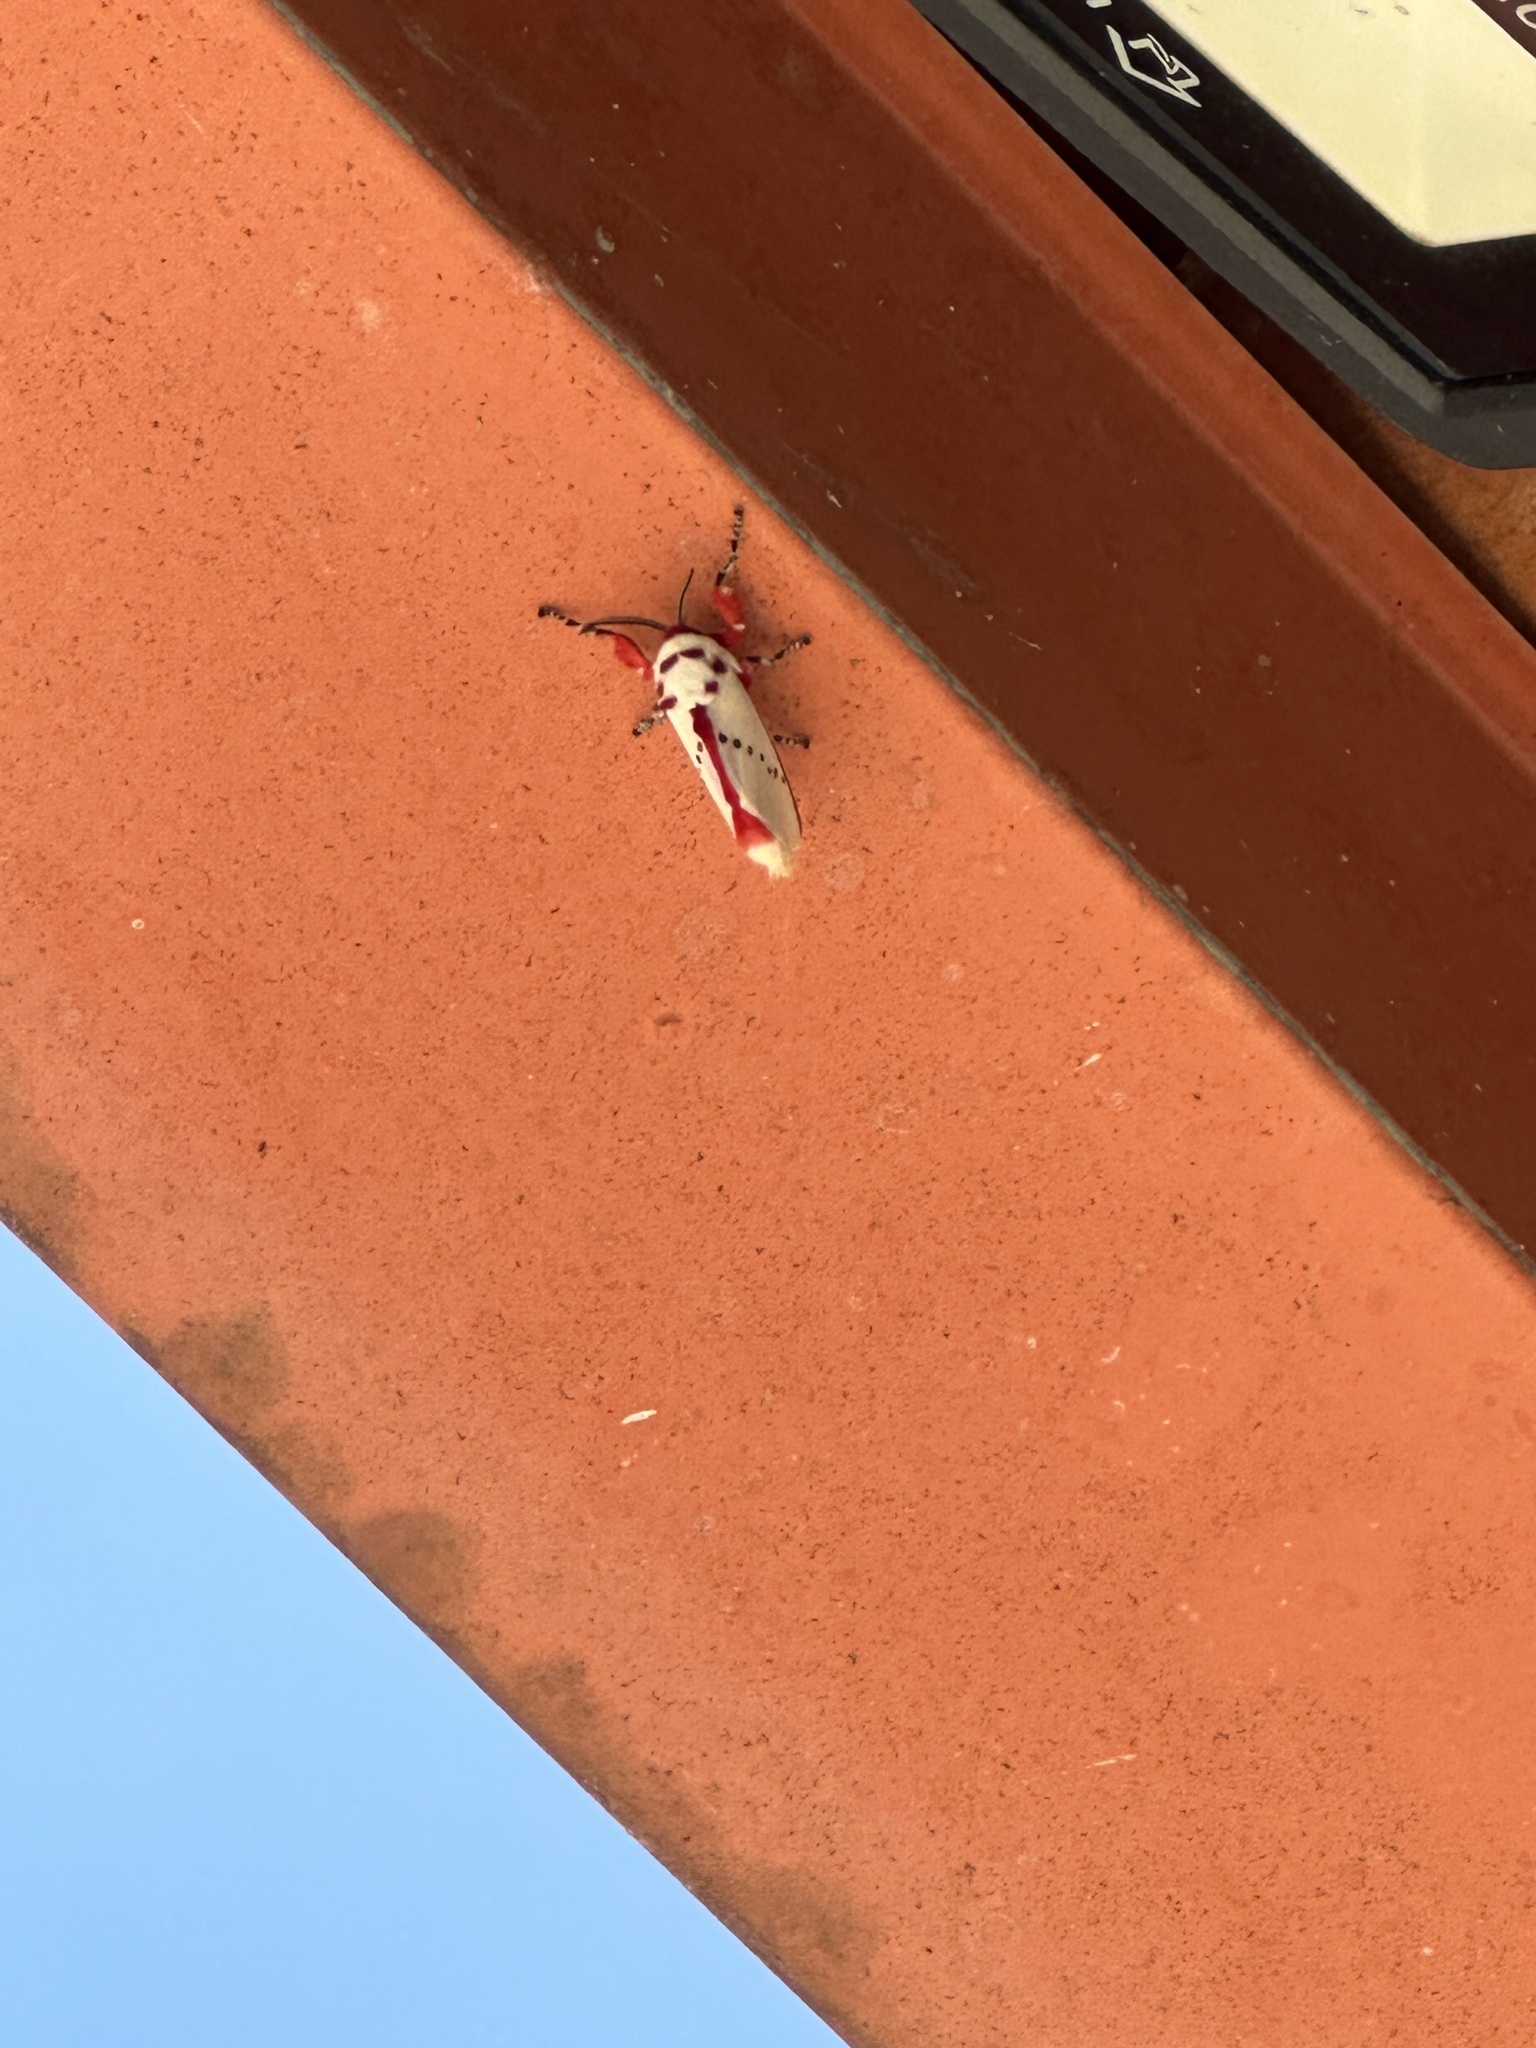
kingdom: Animalia
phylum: Arthropoda
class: Insecta
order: Lepidoptera
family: Megalopygidae
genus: Trosia
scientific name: Trosia donckieri
